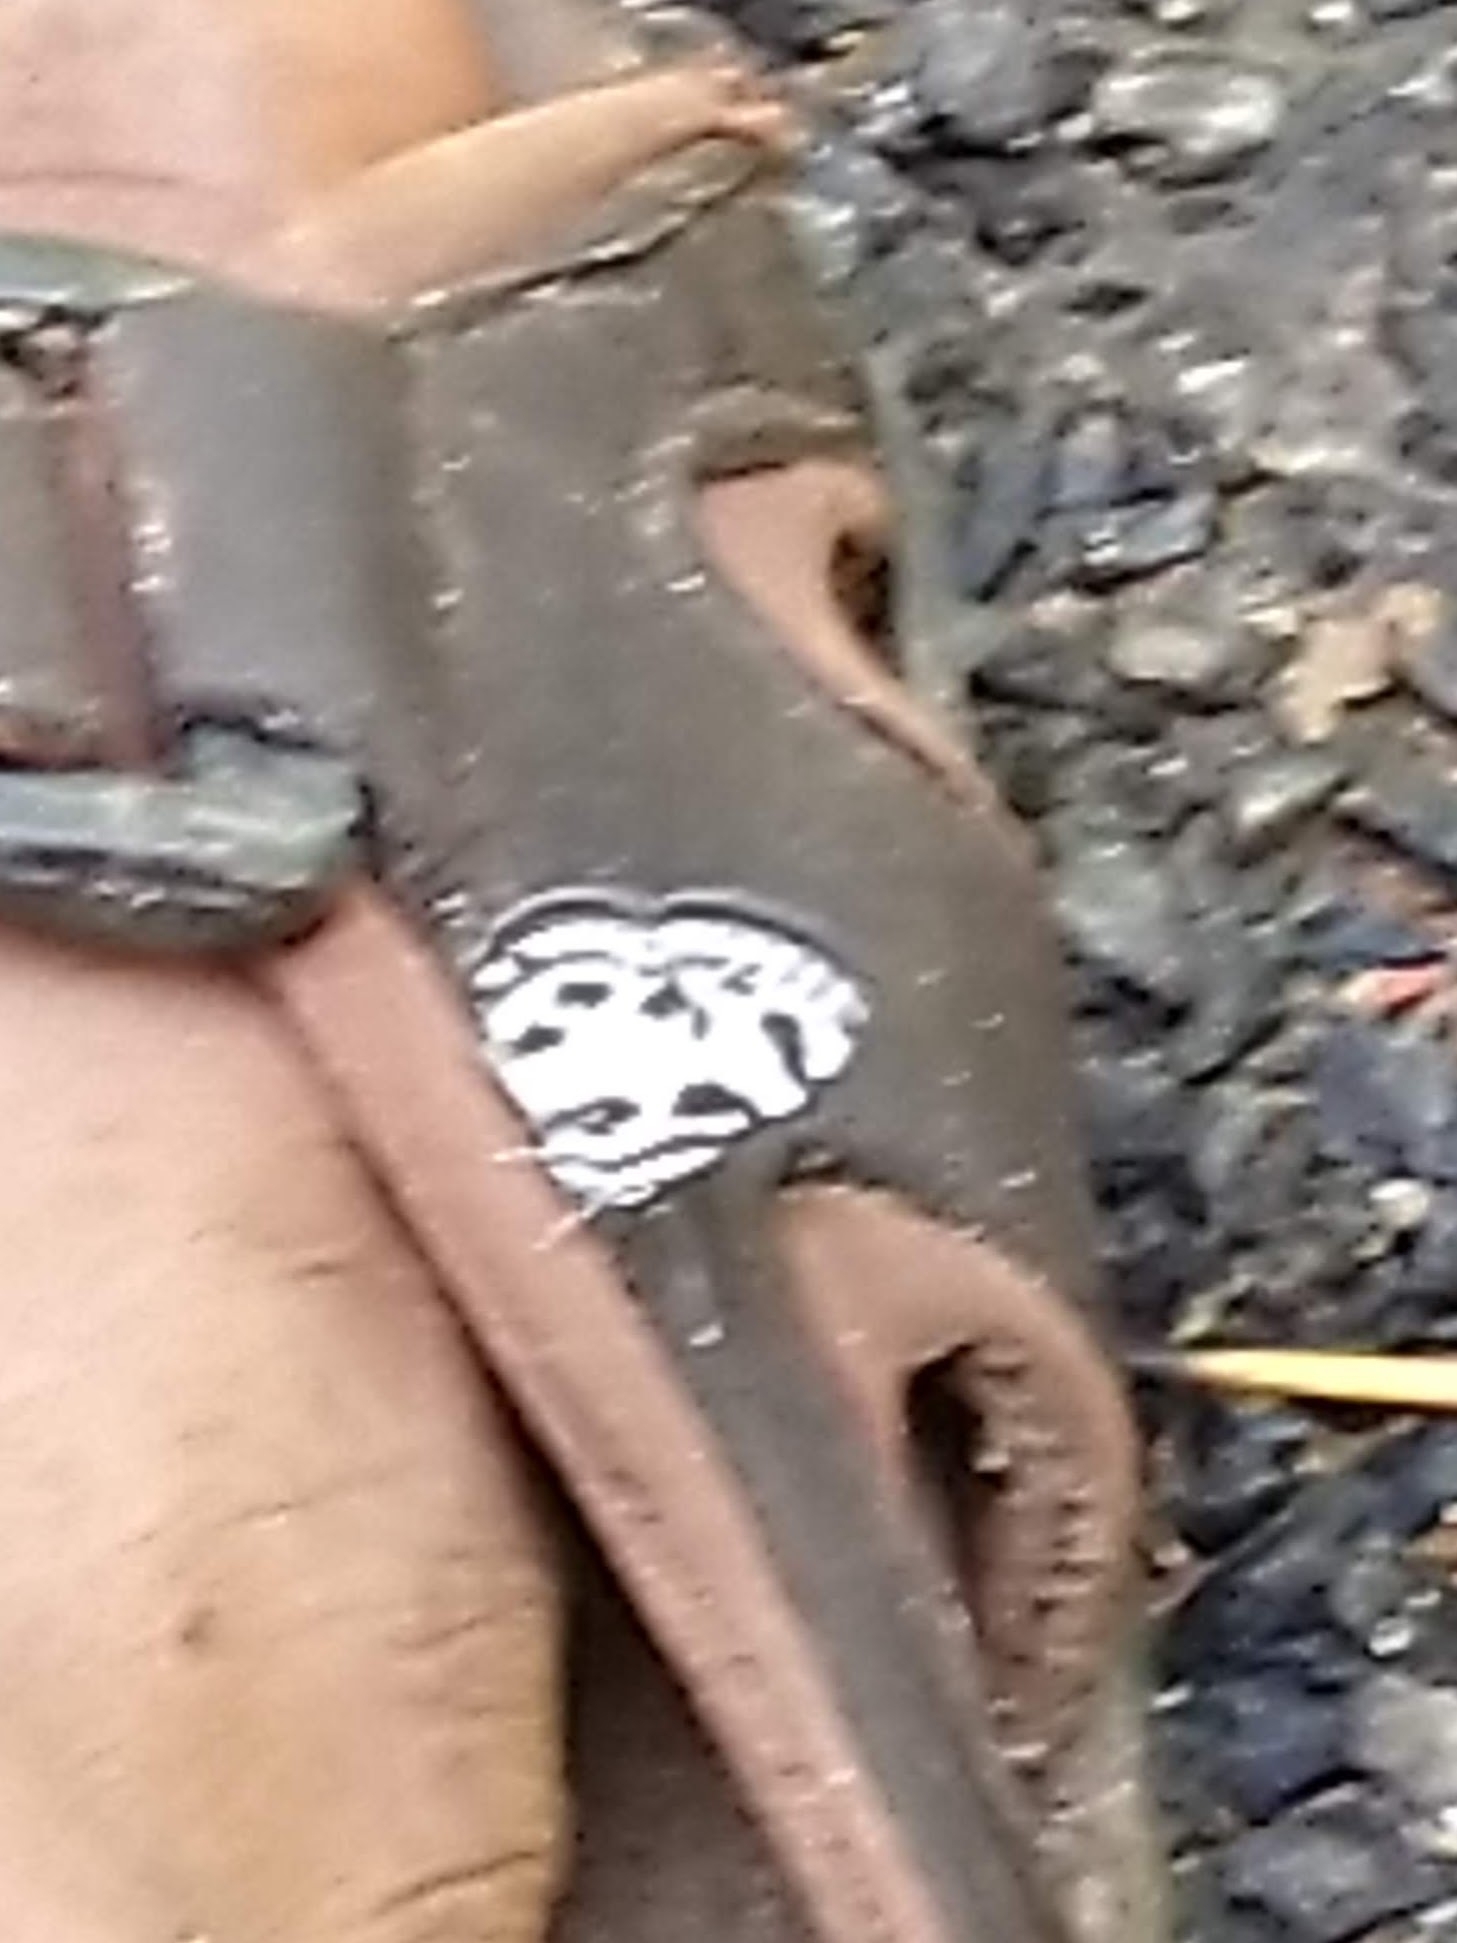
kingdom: Animalia
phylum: Arthropoda
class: Insecta
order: Lepidoptera
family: Lycaenidae
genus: Discolampa
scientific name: Discolampa ethion
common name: Banded blue pierrot
